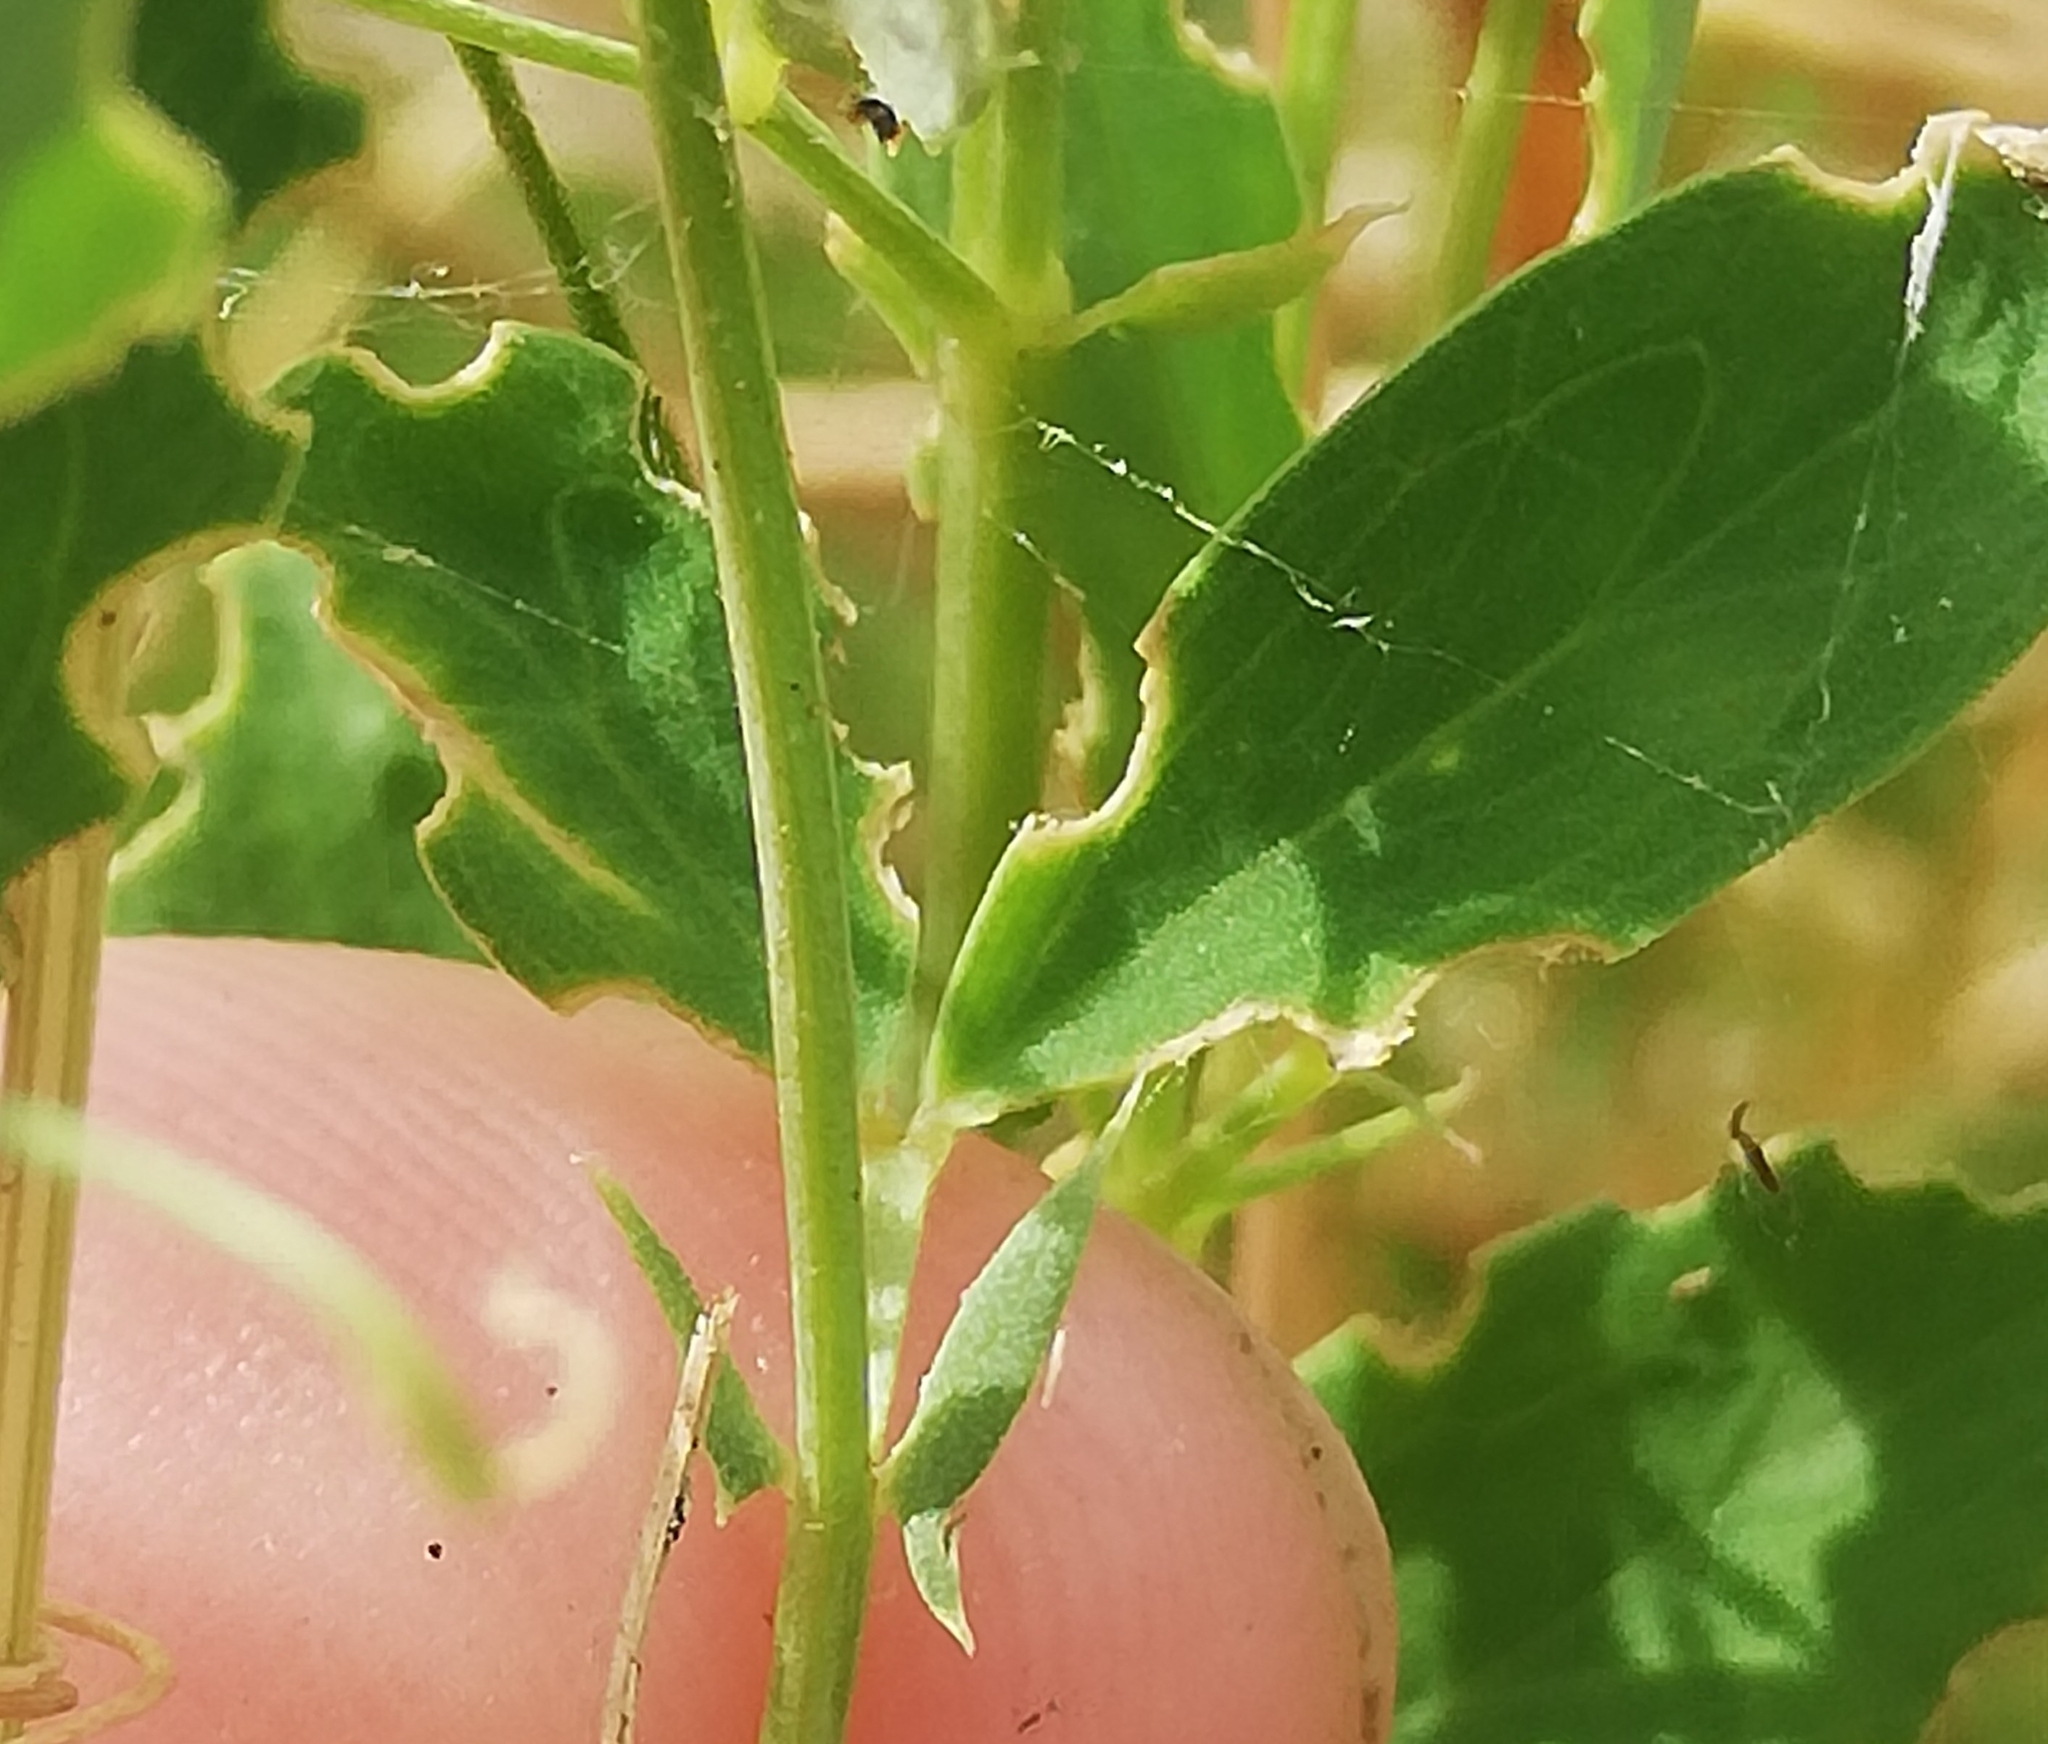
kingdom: Plantae
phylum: Tracheophyta
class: Magnoliopsida
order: Fabales
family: Fabaceae
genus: Lathyrus
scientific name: Lathyrus tuberosus
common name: Tuberous pea
